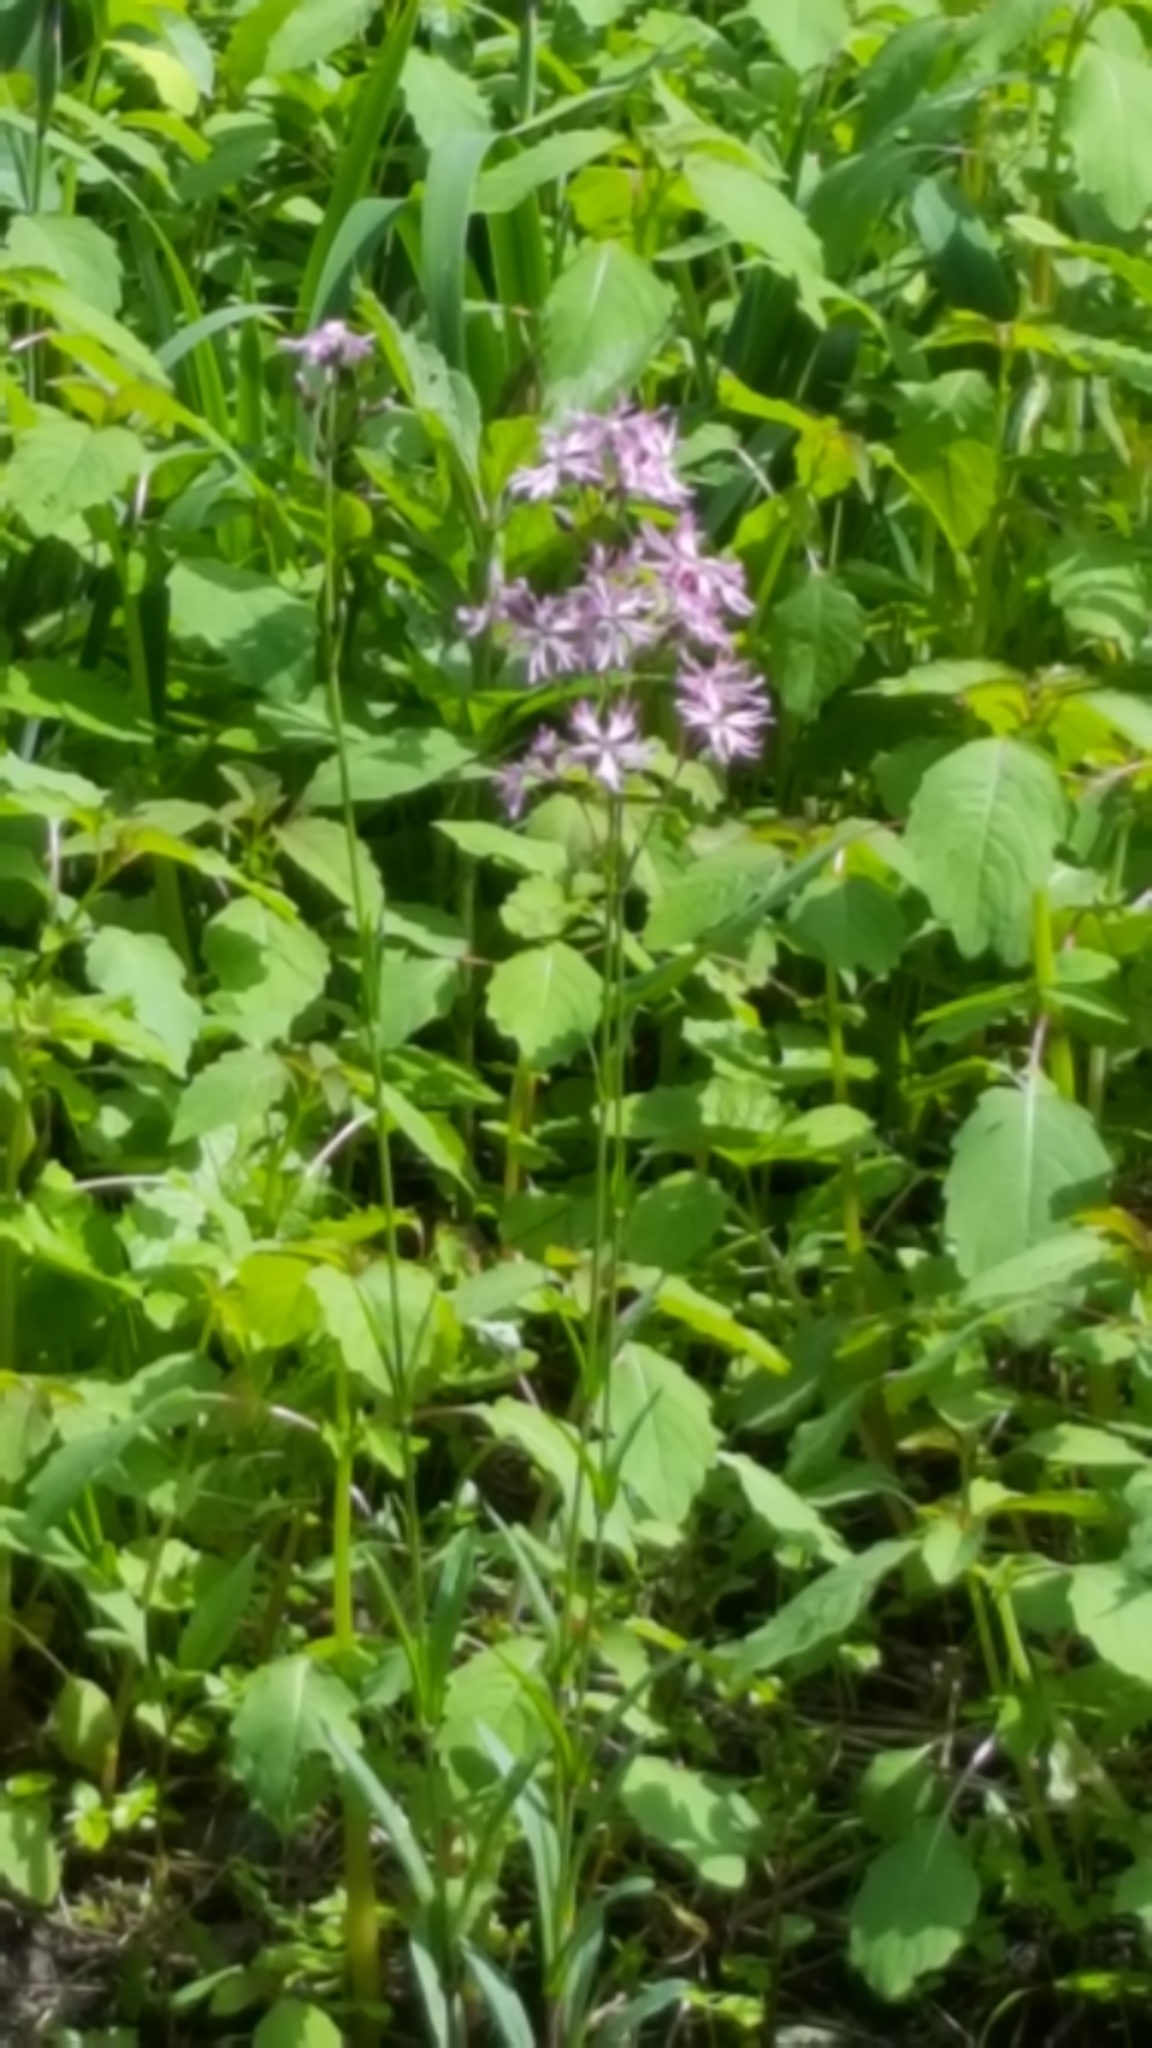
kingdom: Plantae
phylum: Tracheophyta
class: Magnoliopsida
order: Caryophyllales
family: Caryophyllaceae
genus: Silene
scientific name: Silene flos-cuculi
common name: Ragged-robin
